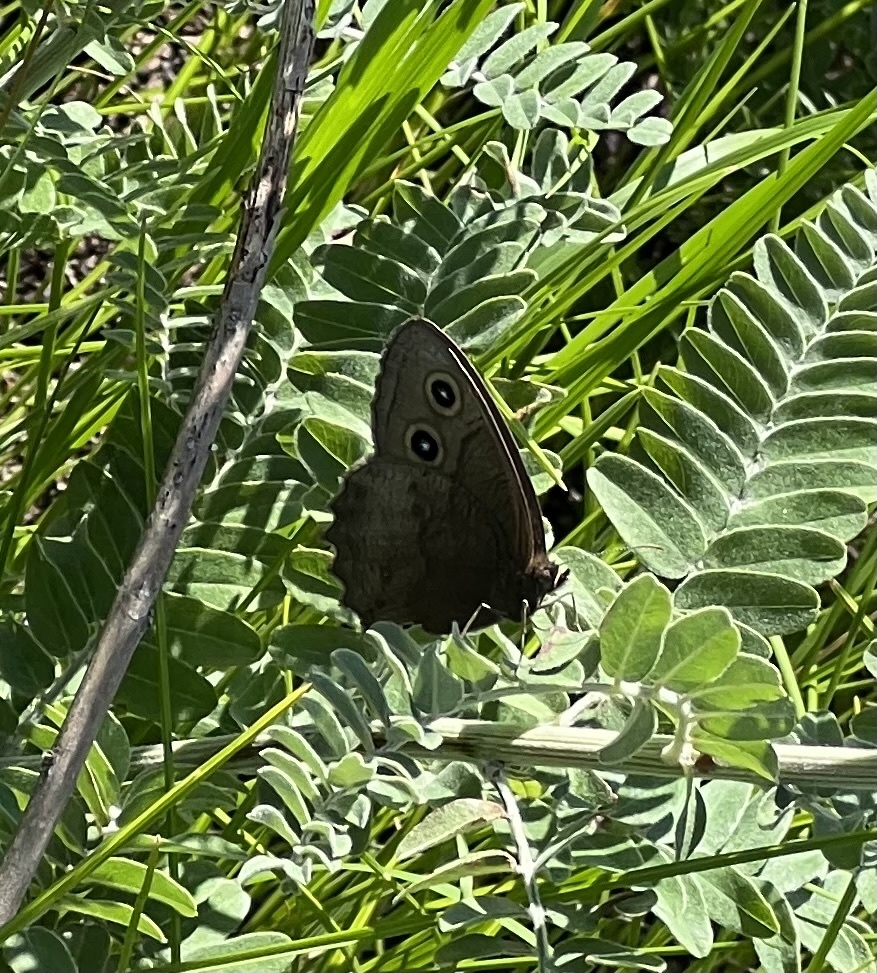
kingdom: Animalia
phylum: Arthropoda
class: Insecta
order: Lepidoptera
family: Nymphalidae
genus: Cercyonis
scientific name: Cercyonis pegala
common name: Common wood-nymph
